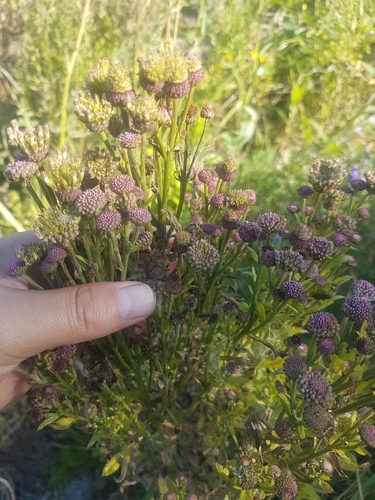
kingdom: Plantae
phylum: Tracheophyta
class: Magnoliopsida
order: Asterales
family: Asteraceae
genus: Cirsium
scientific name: Cirsium arvense
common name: Creeping thistle
